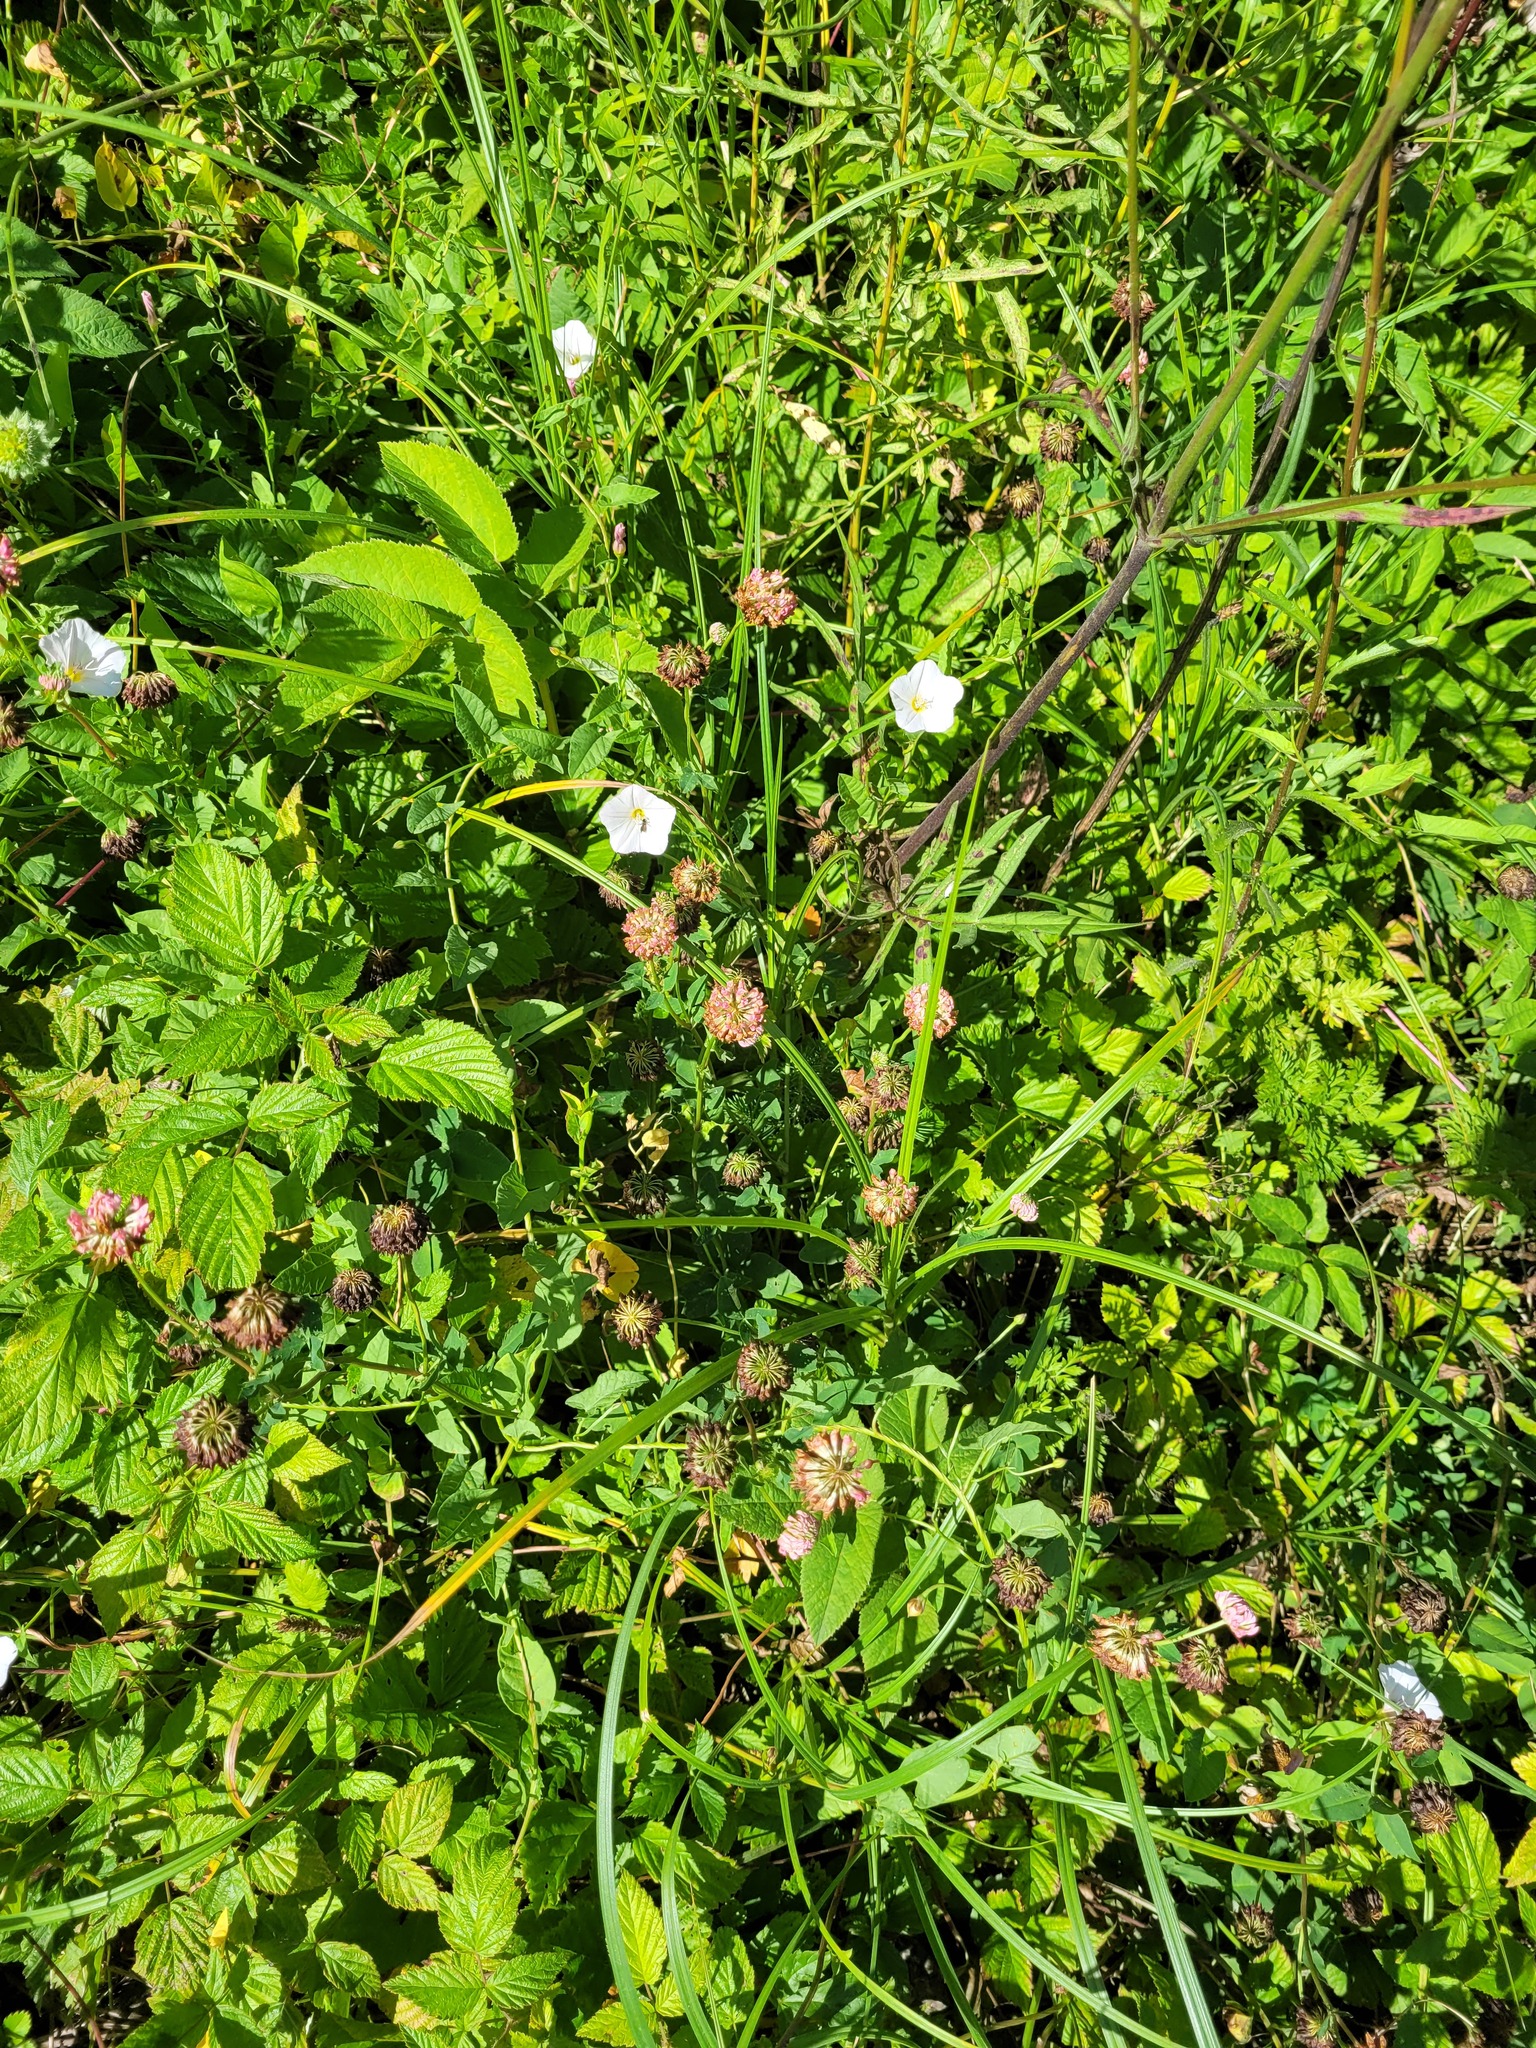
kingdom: Plantae
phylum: Tracheophyta
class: Magnoliopsida
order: Fabales
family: Fabaceae
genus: Trifolium
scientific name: Trifolium hybridum
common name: Alsike clover
